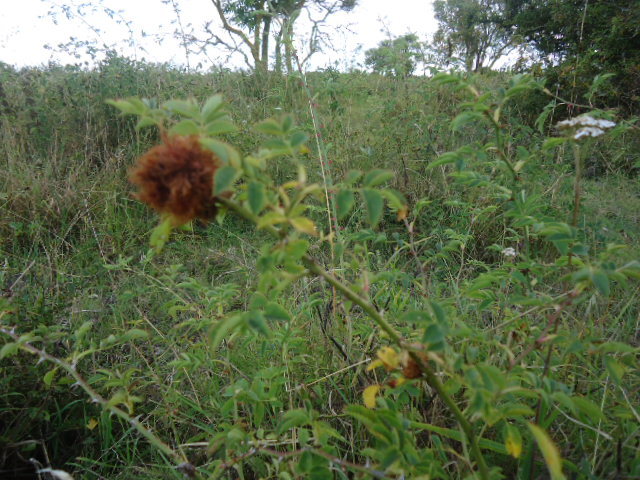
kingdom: Animalia
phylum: Arthropoda
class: Insecta
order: Hymenoptera
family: Cynipidae
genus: Diplolepis
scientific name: Diplolepis rosae
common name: Bedeguar gall
